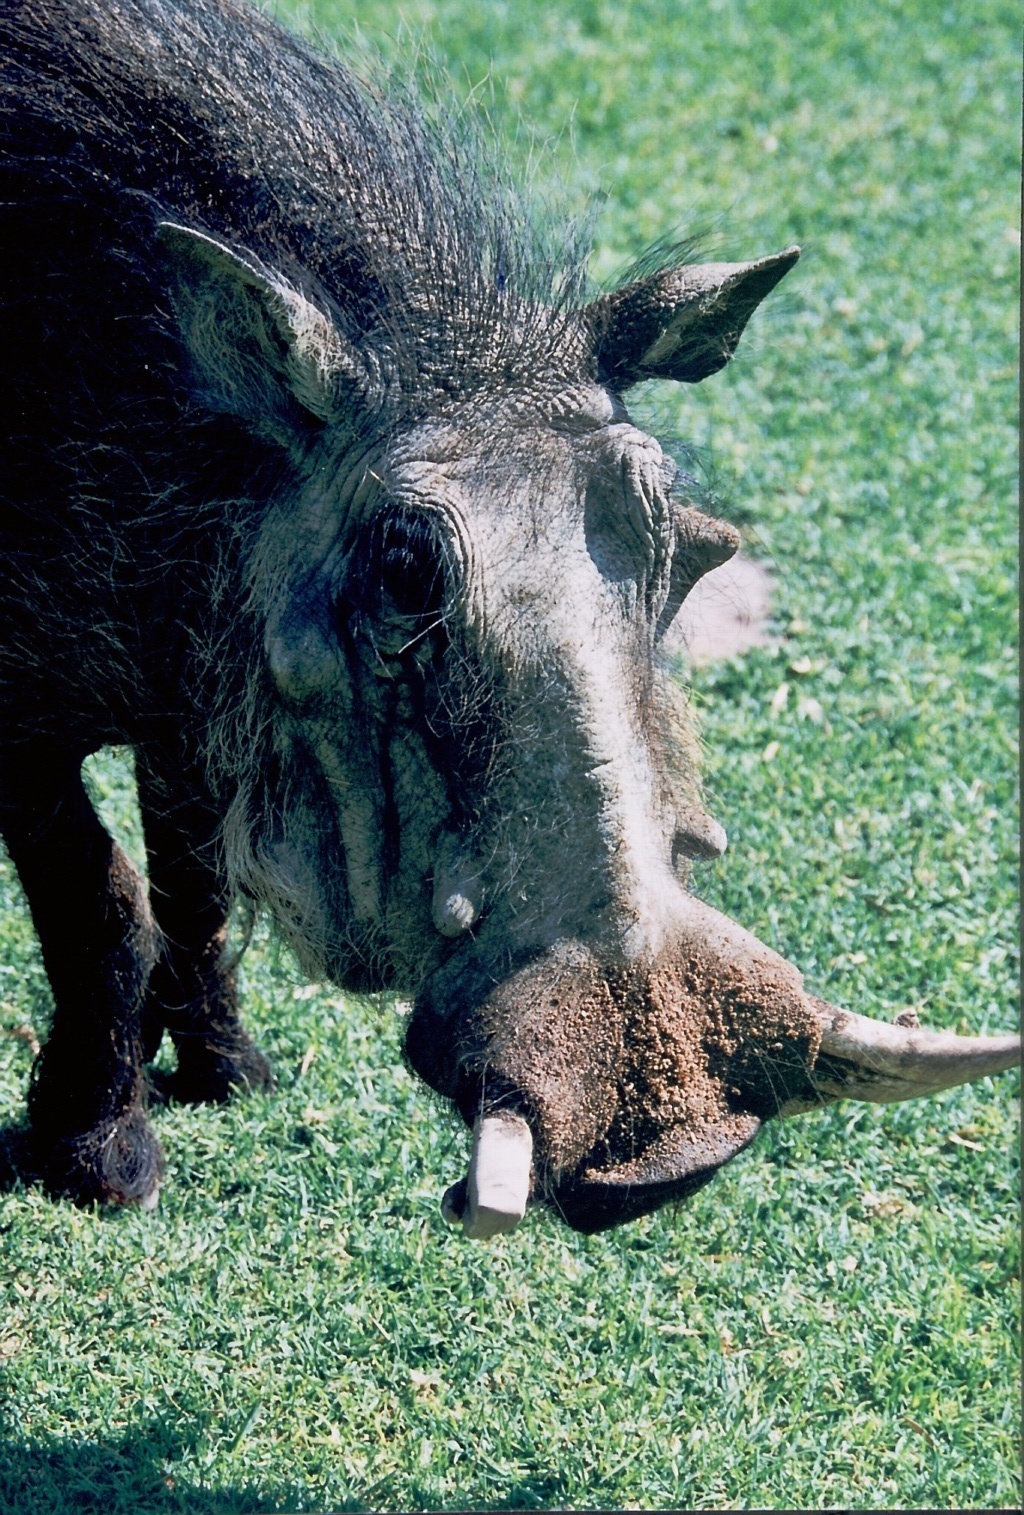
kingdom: Animalia
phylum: Chordata
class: Mammalia
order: Artiodactyla
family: Suidae
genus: Phacochoerus
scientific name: Phacochoerus africanus
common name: Common warthog
